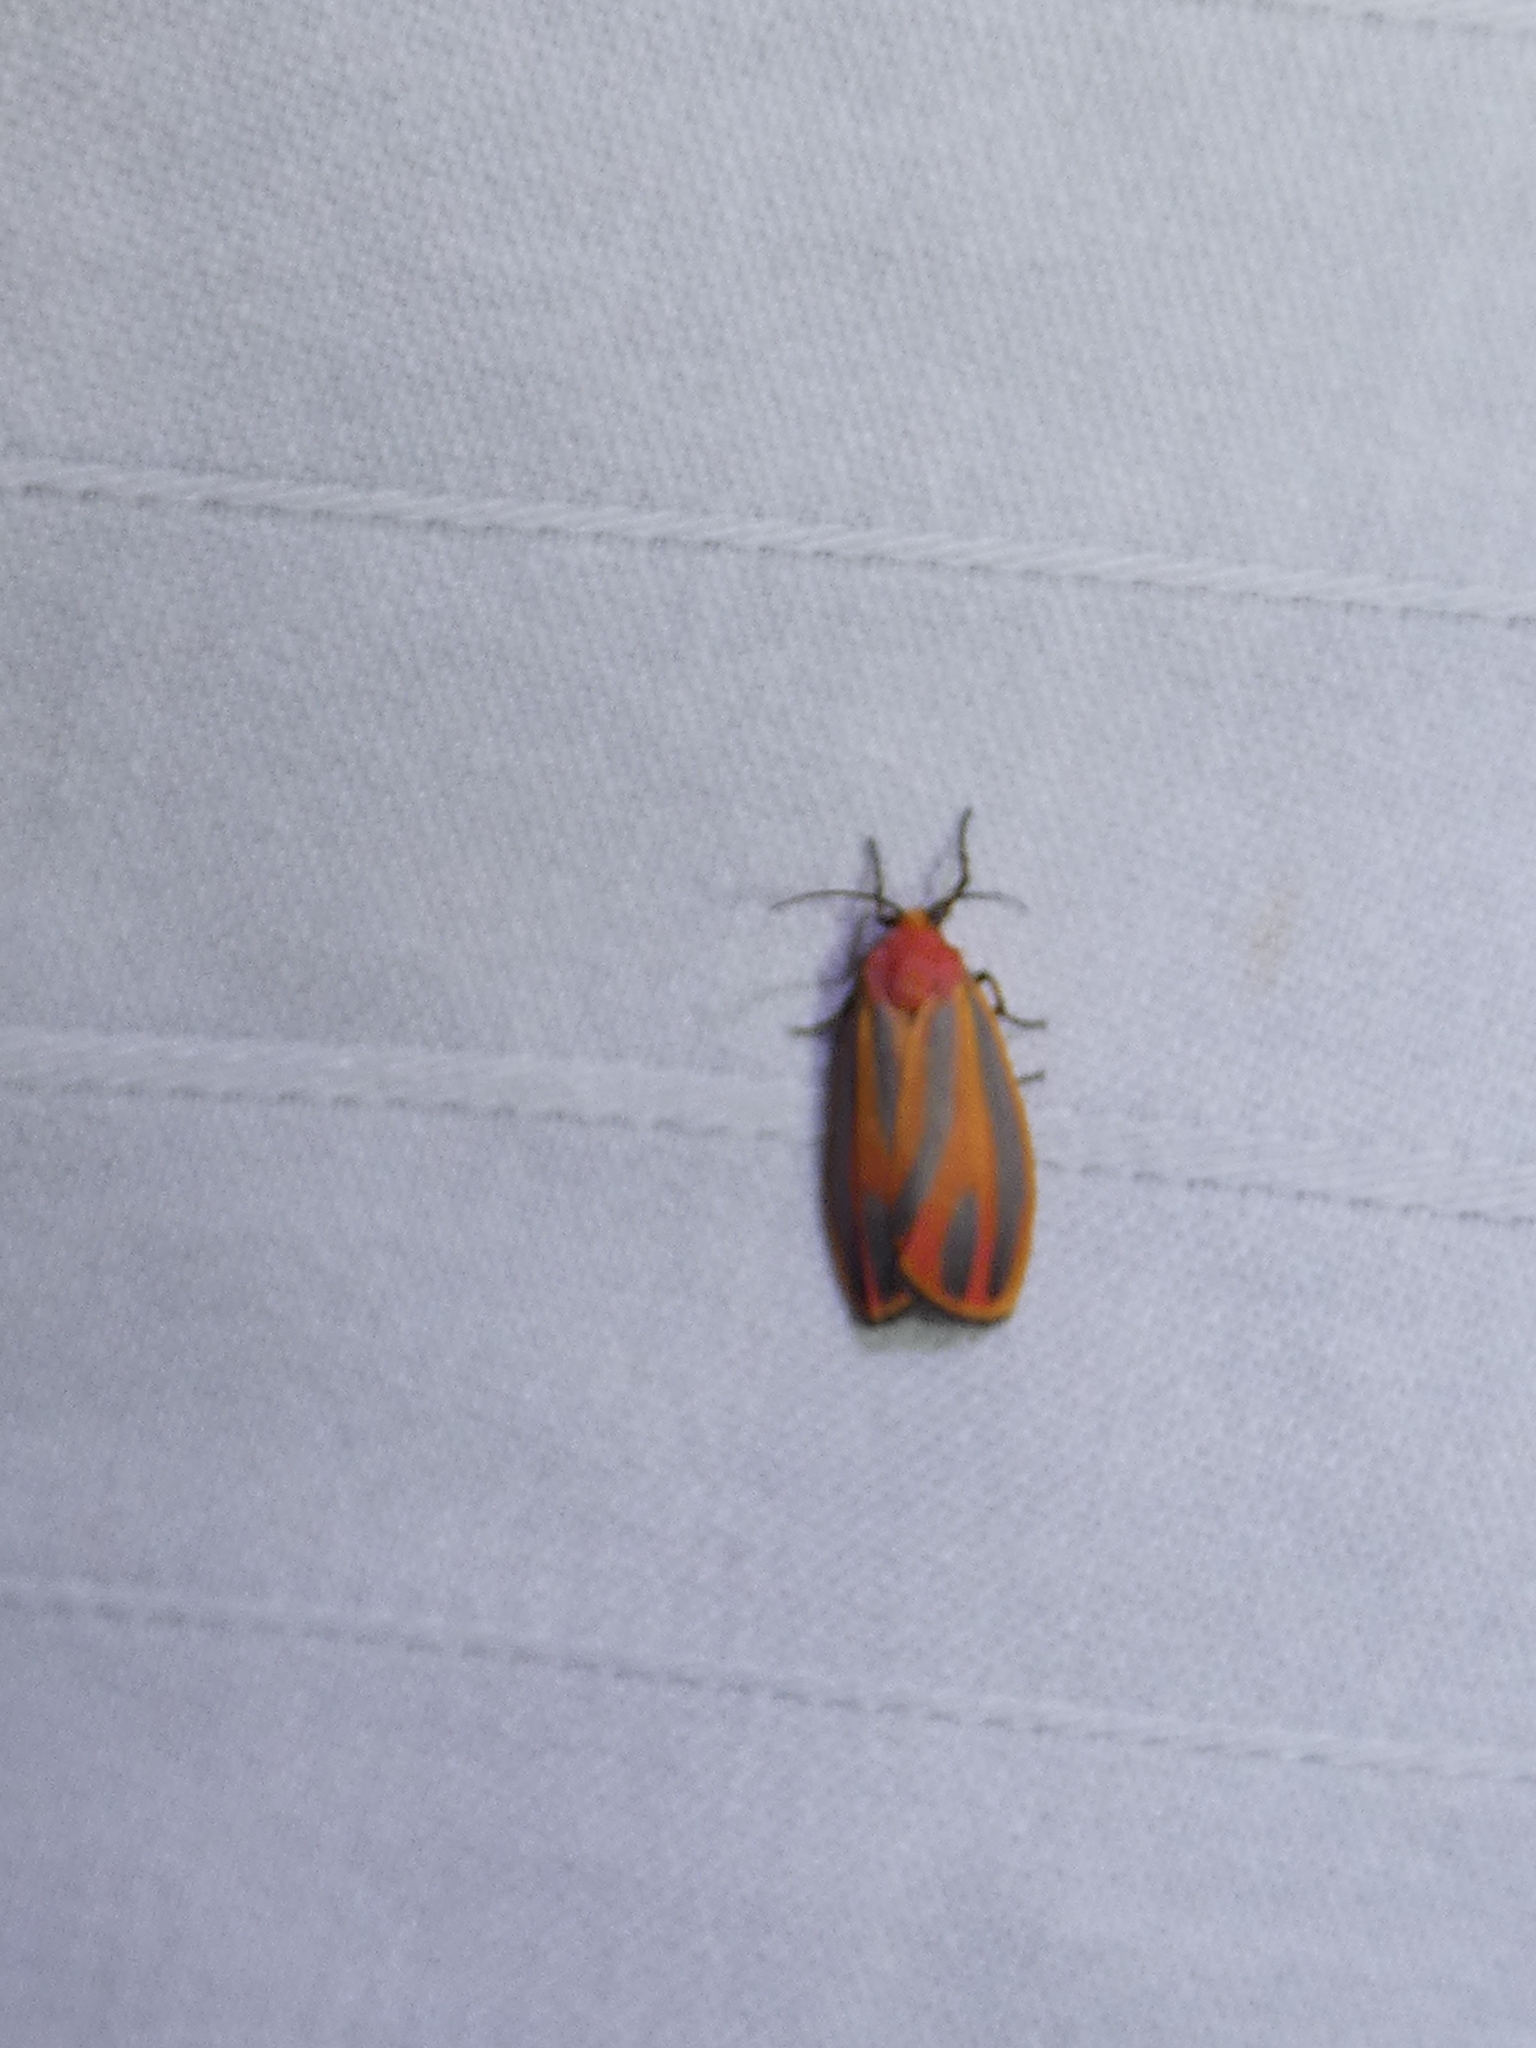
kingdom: Animalia
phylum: Arthropoda
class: Insecta
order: Lepidoptera
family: Erebidae
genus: Hypoprepia
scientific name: Hypoprepia fucosa
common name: Painted lichen moth
